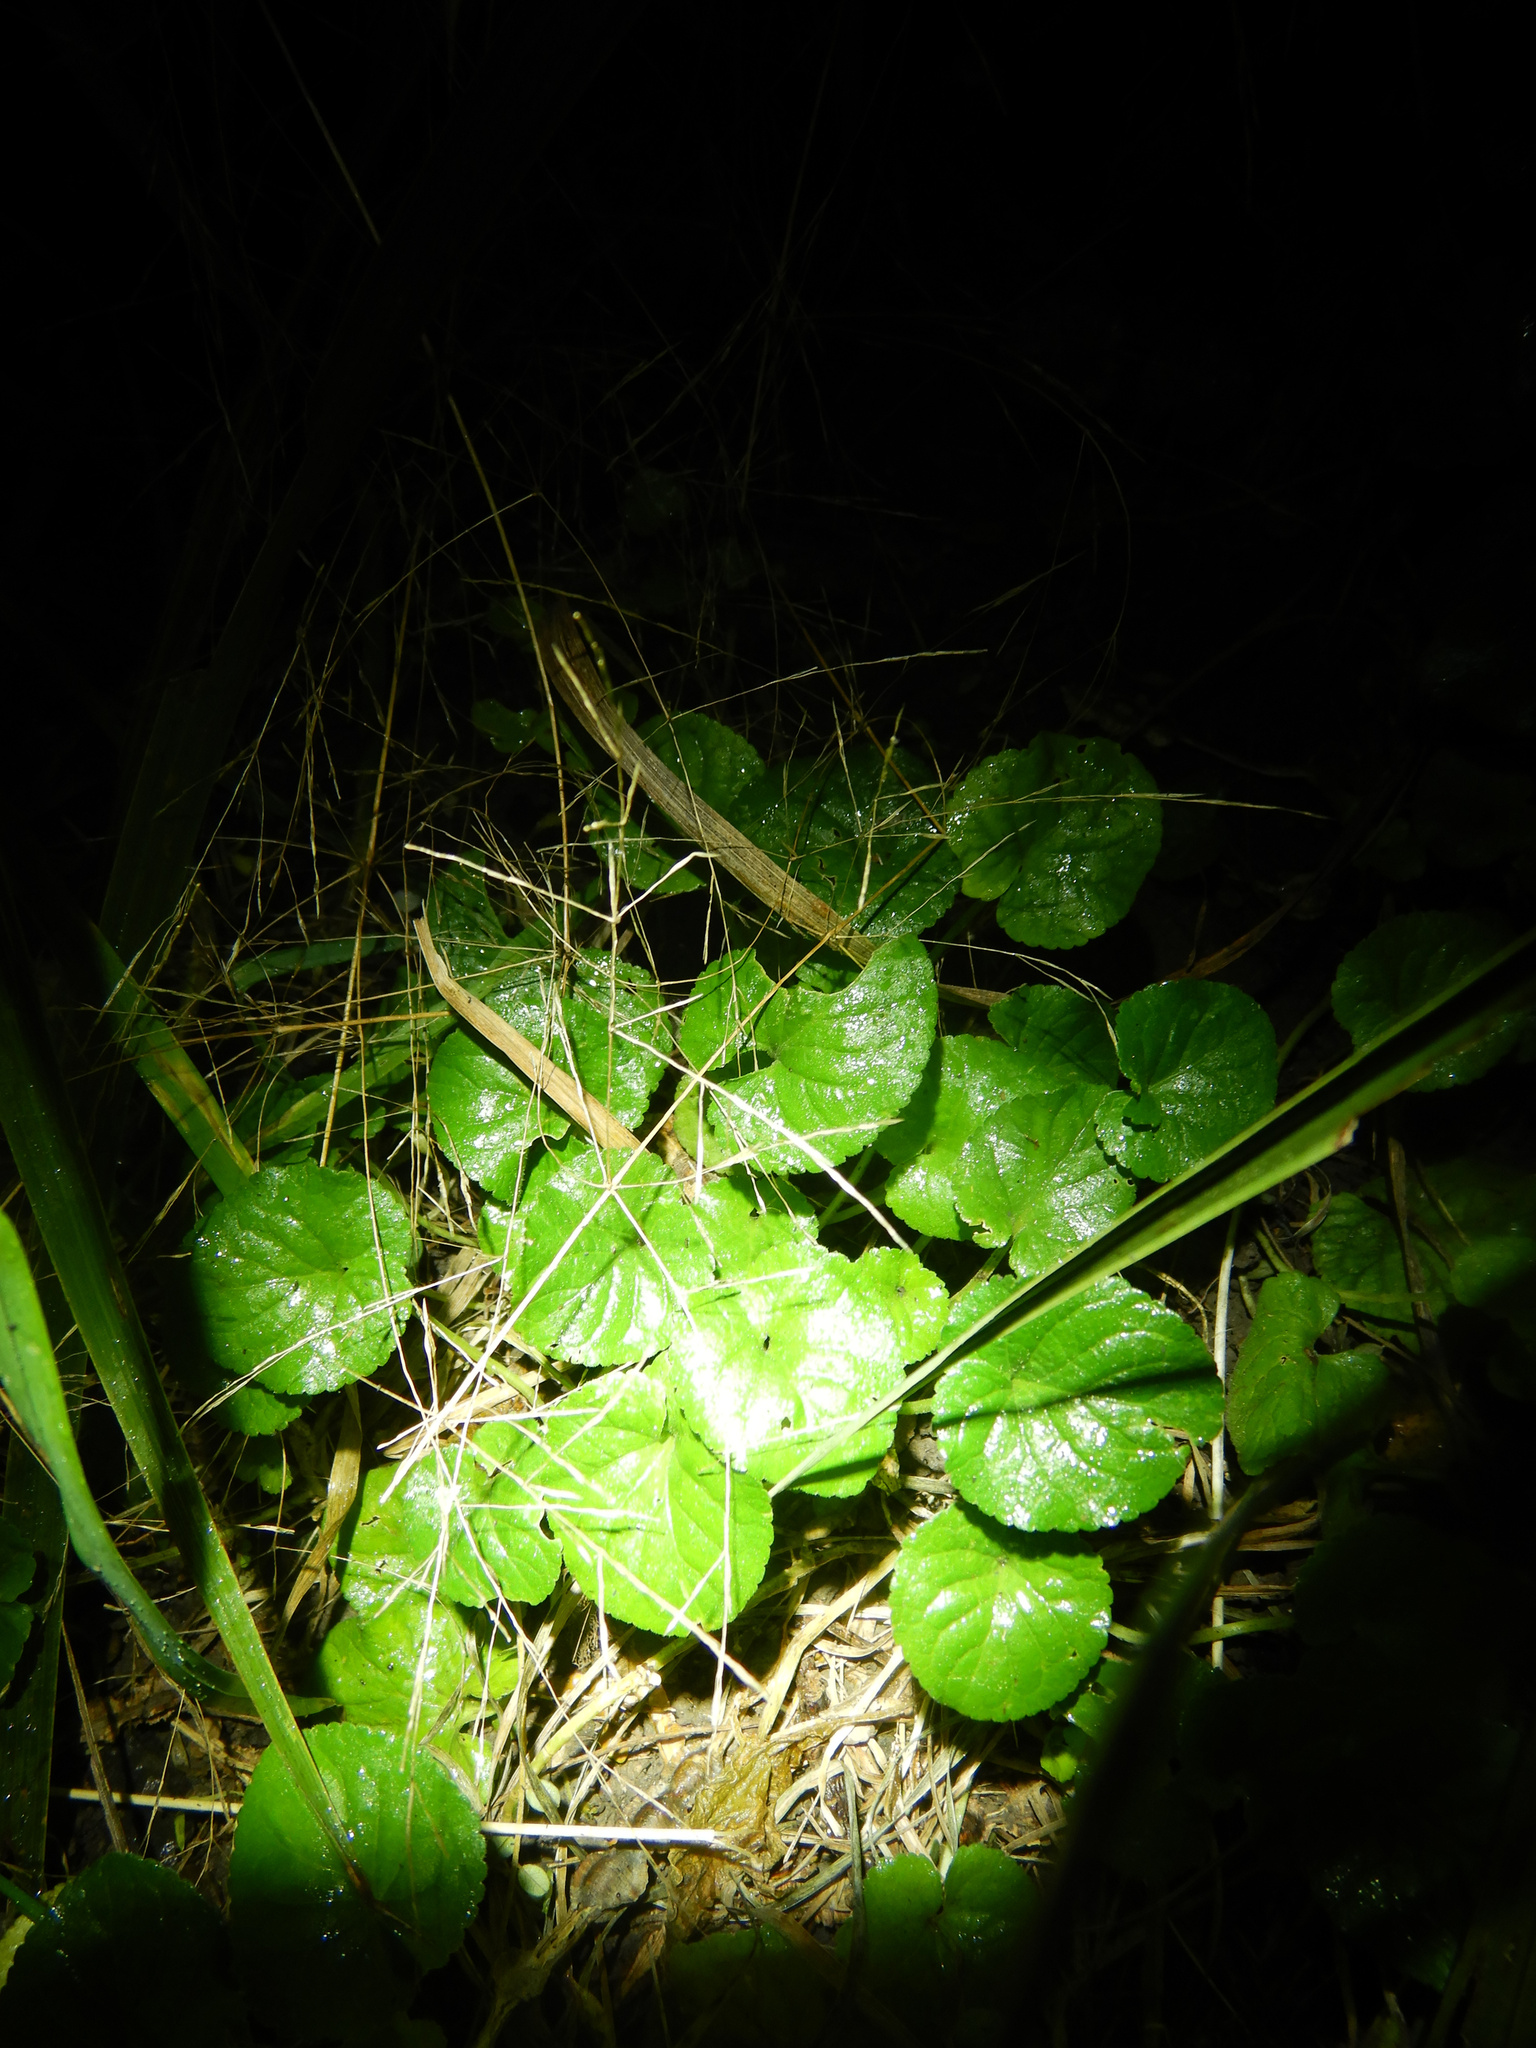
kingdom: Plantae
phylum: Tracheophyta
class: Magnoliopsida
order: Malpighiales
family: Violaceae
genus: Viola
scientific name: Viola odorata
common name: Sweet violet
